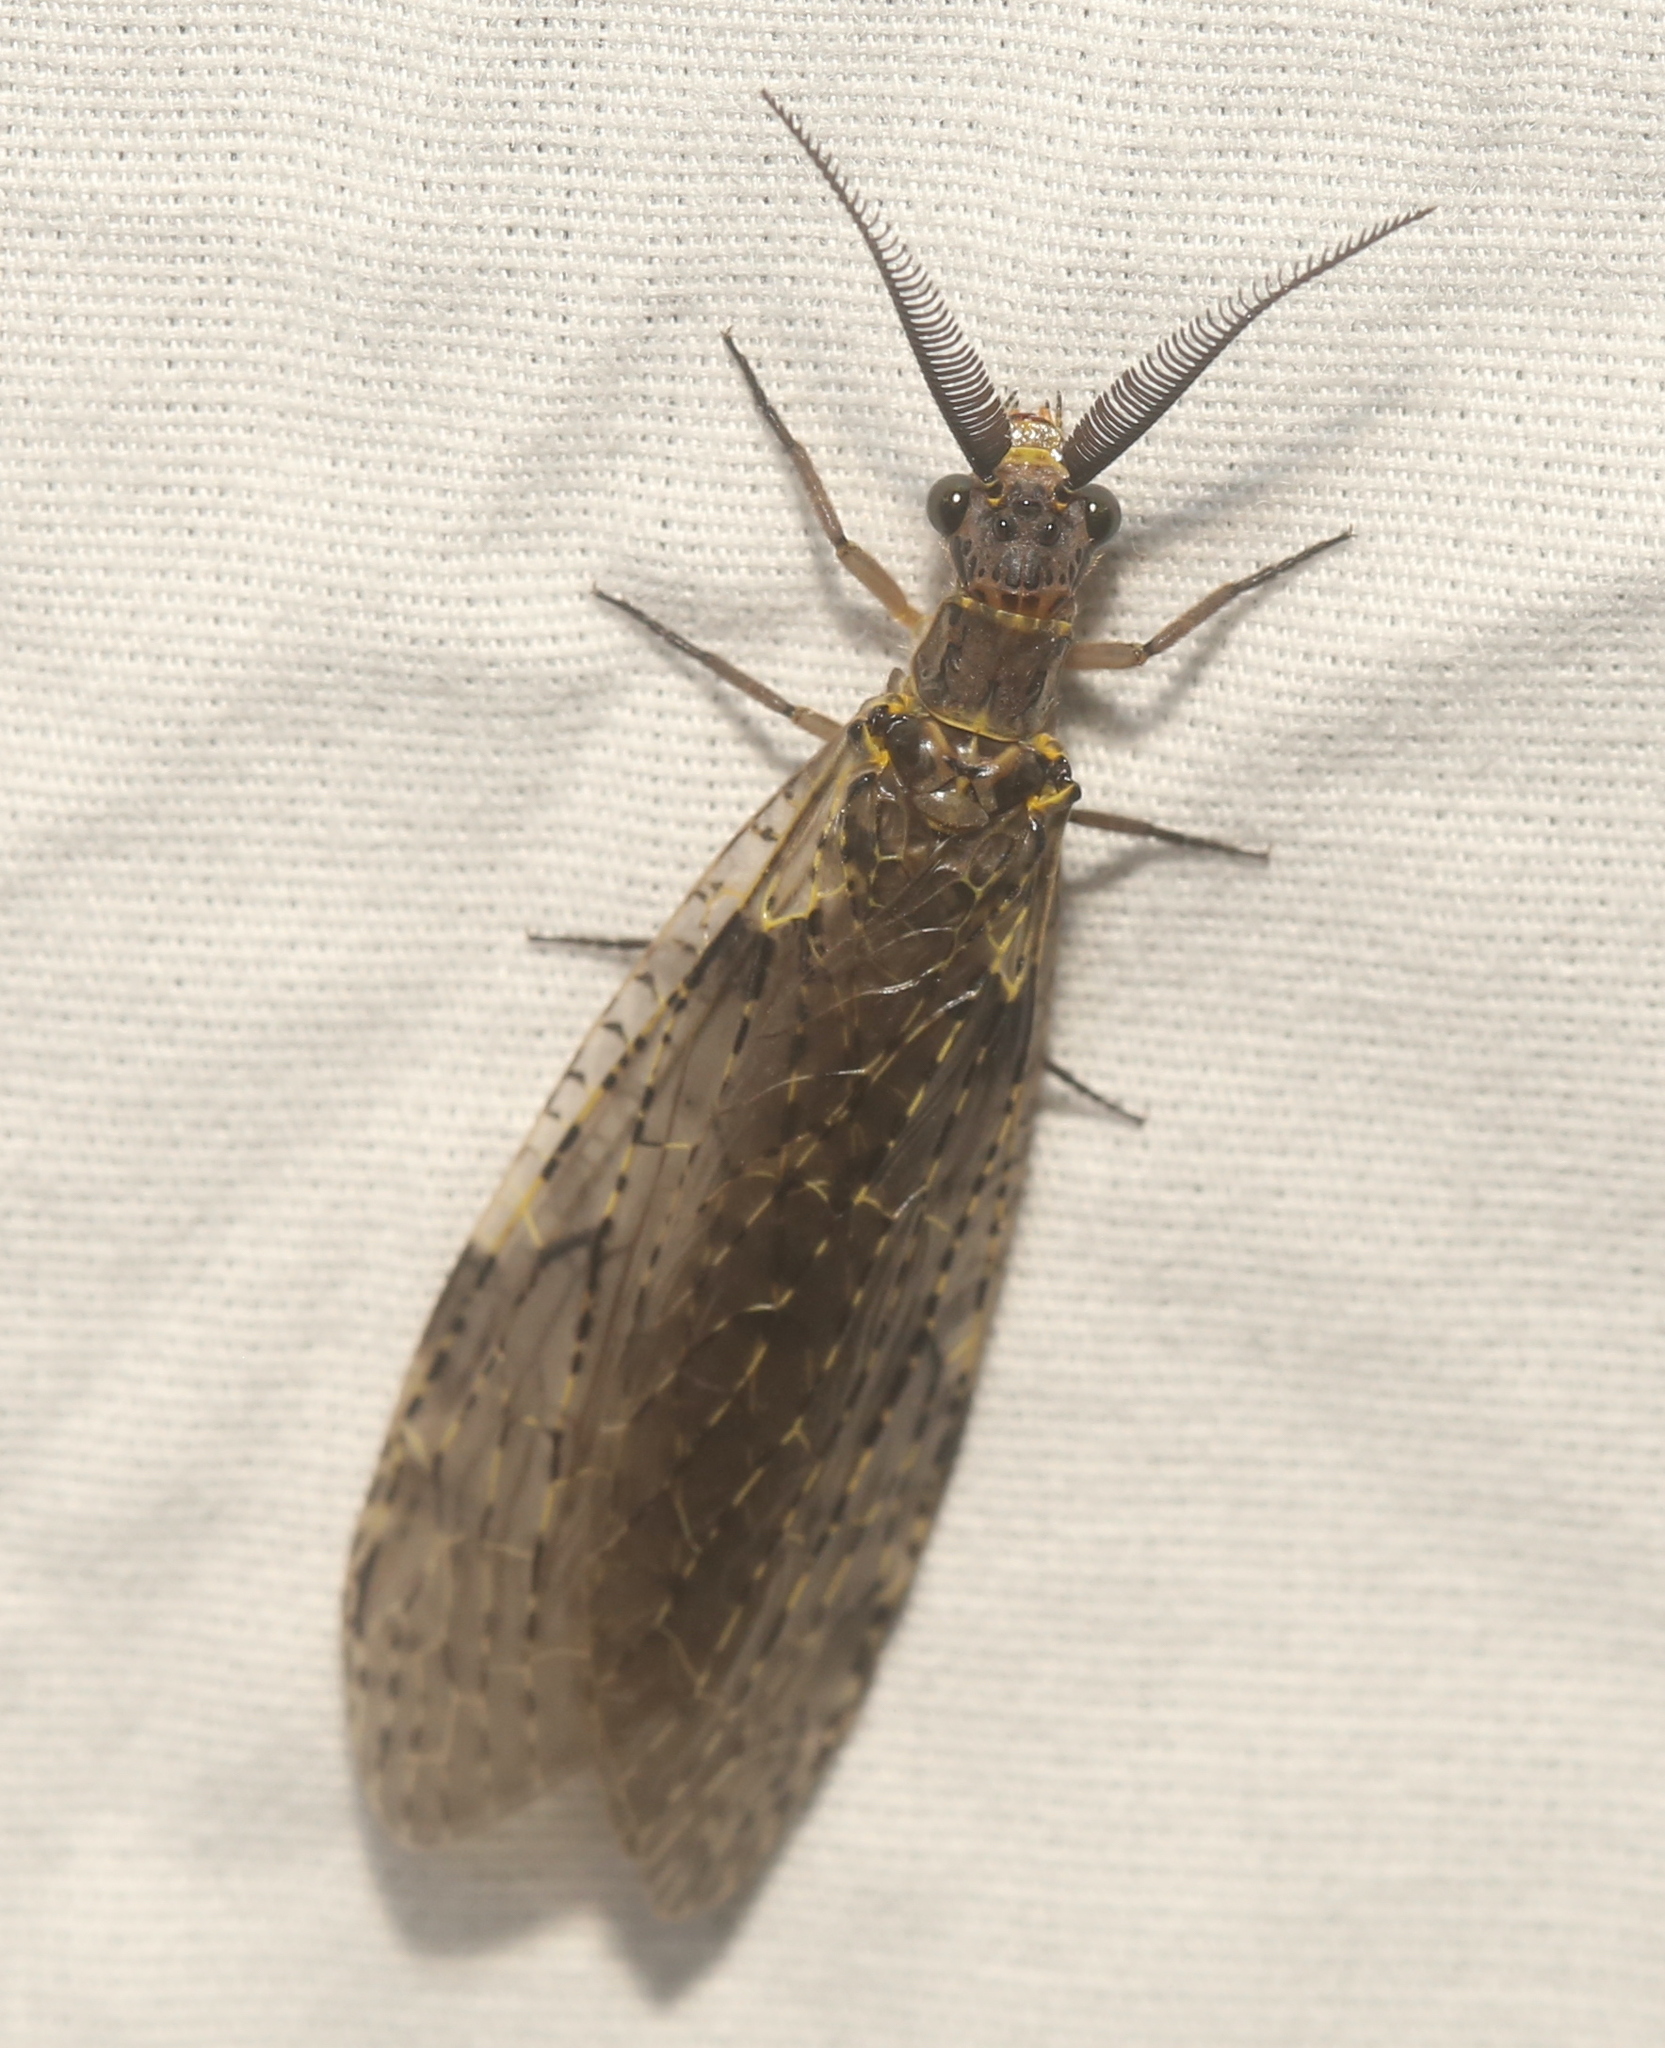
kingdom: Animalia
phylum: Arthropoda
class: Insecta
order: Megaloptera
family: Corydalidae
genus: Chauliodes
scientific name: Chauliodes rastricornis
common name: Spring fishfly
